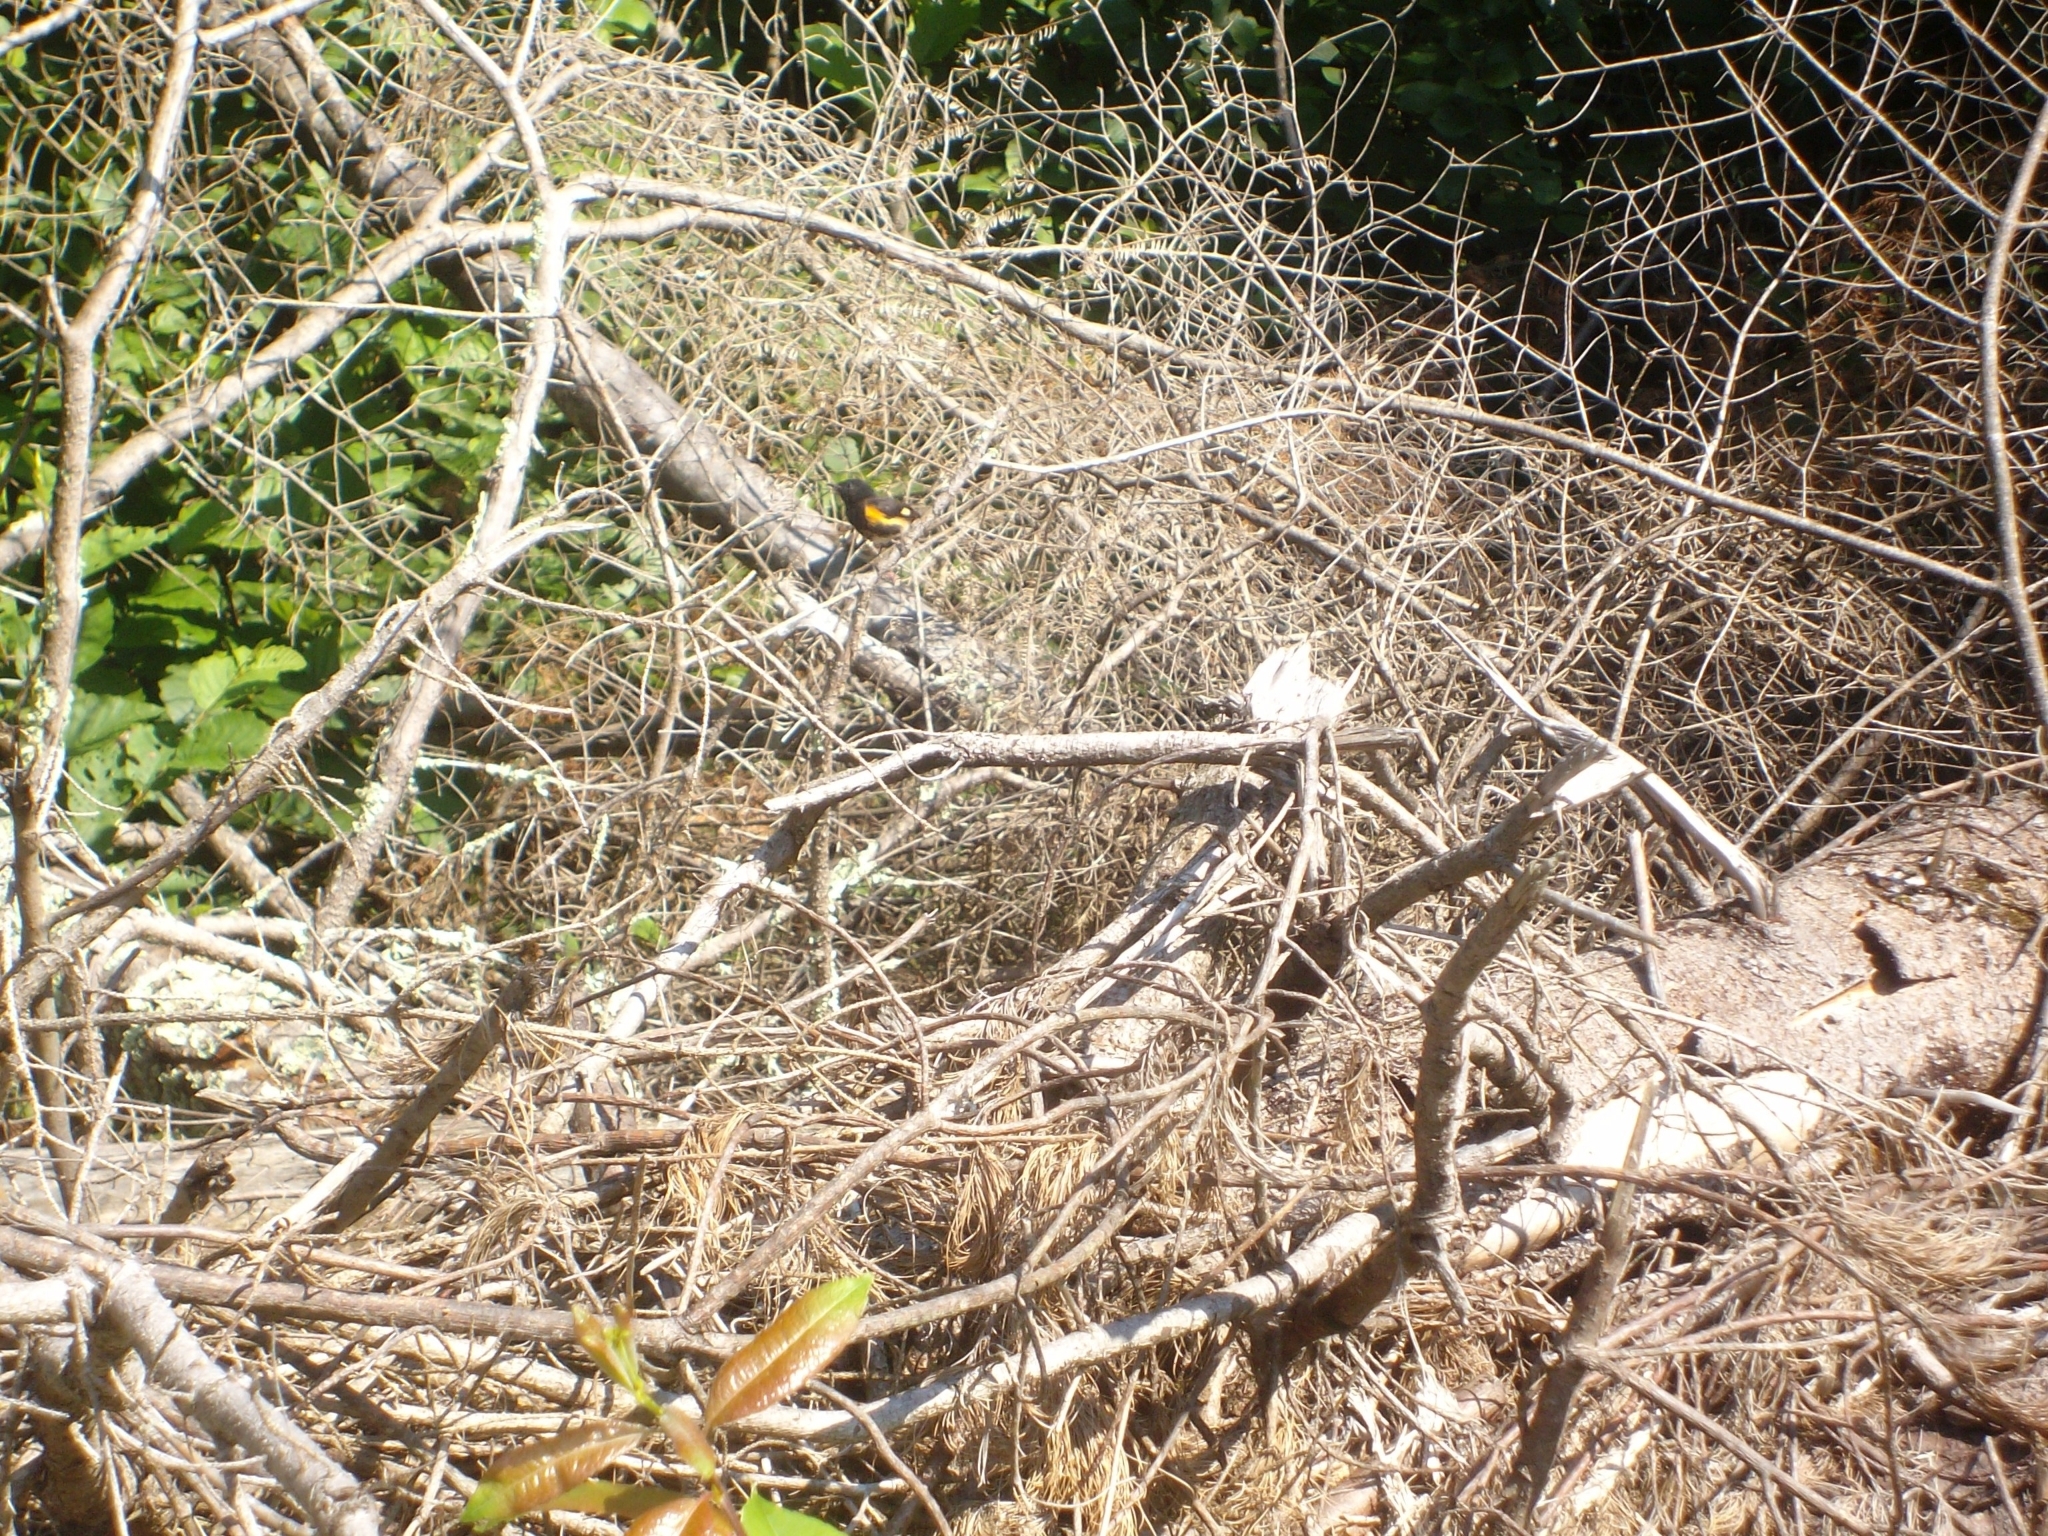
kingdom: Animalia
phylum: Chordata
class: Aves
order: Passeriformes
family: Parulidae
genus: Setophaga
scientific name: Setophaga ruticilla
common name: American redstart
